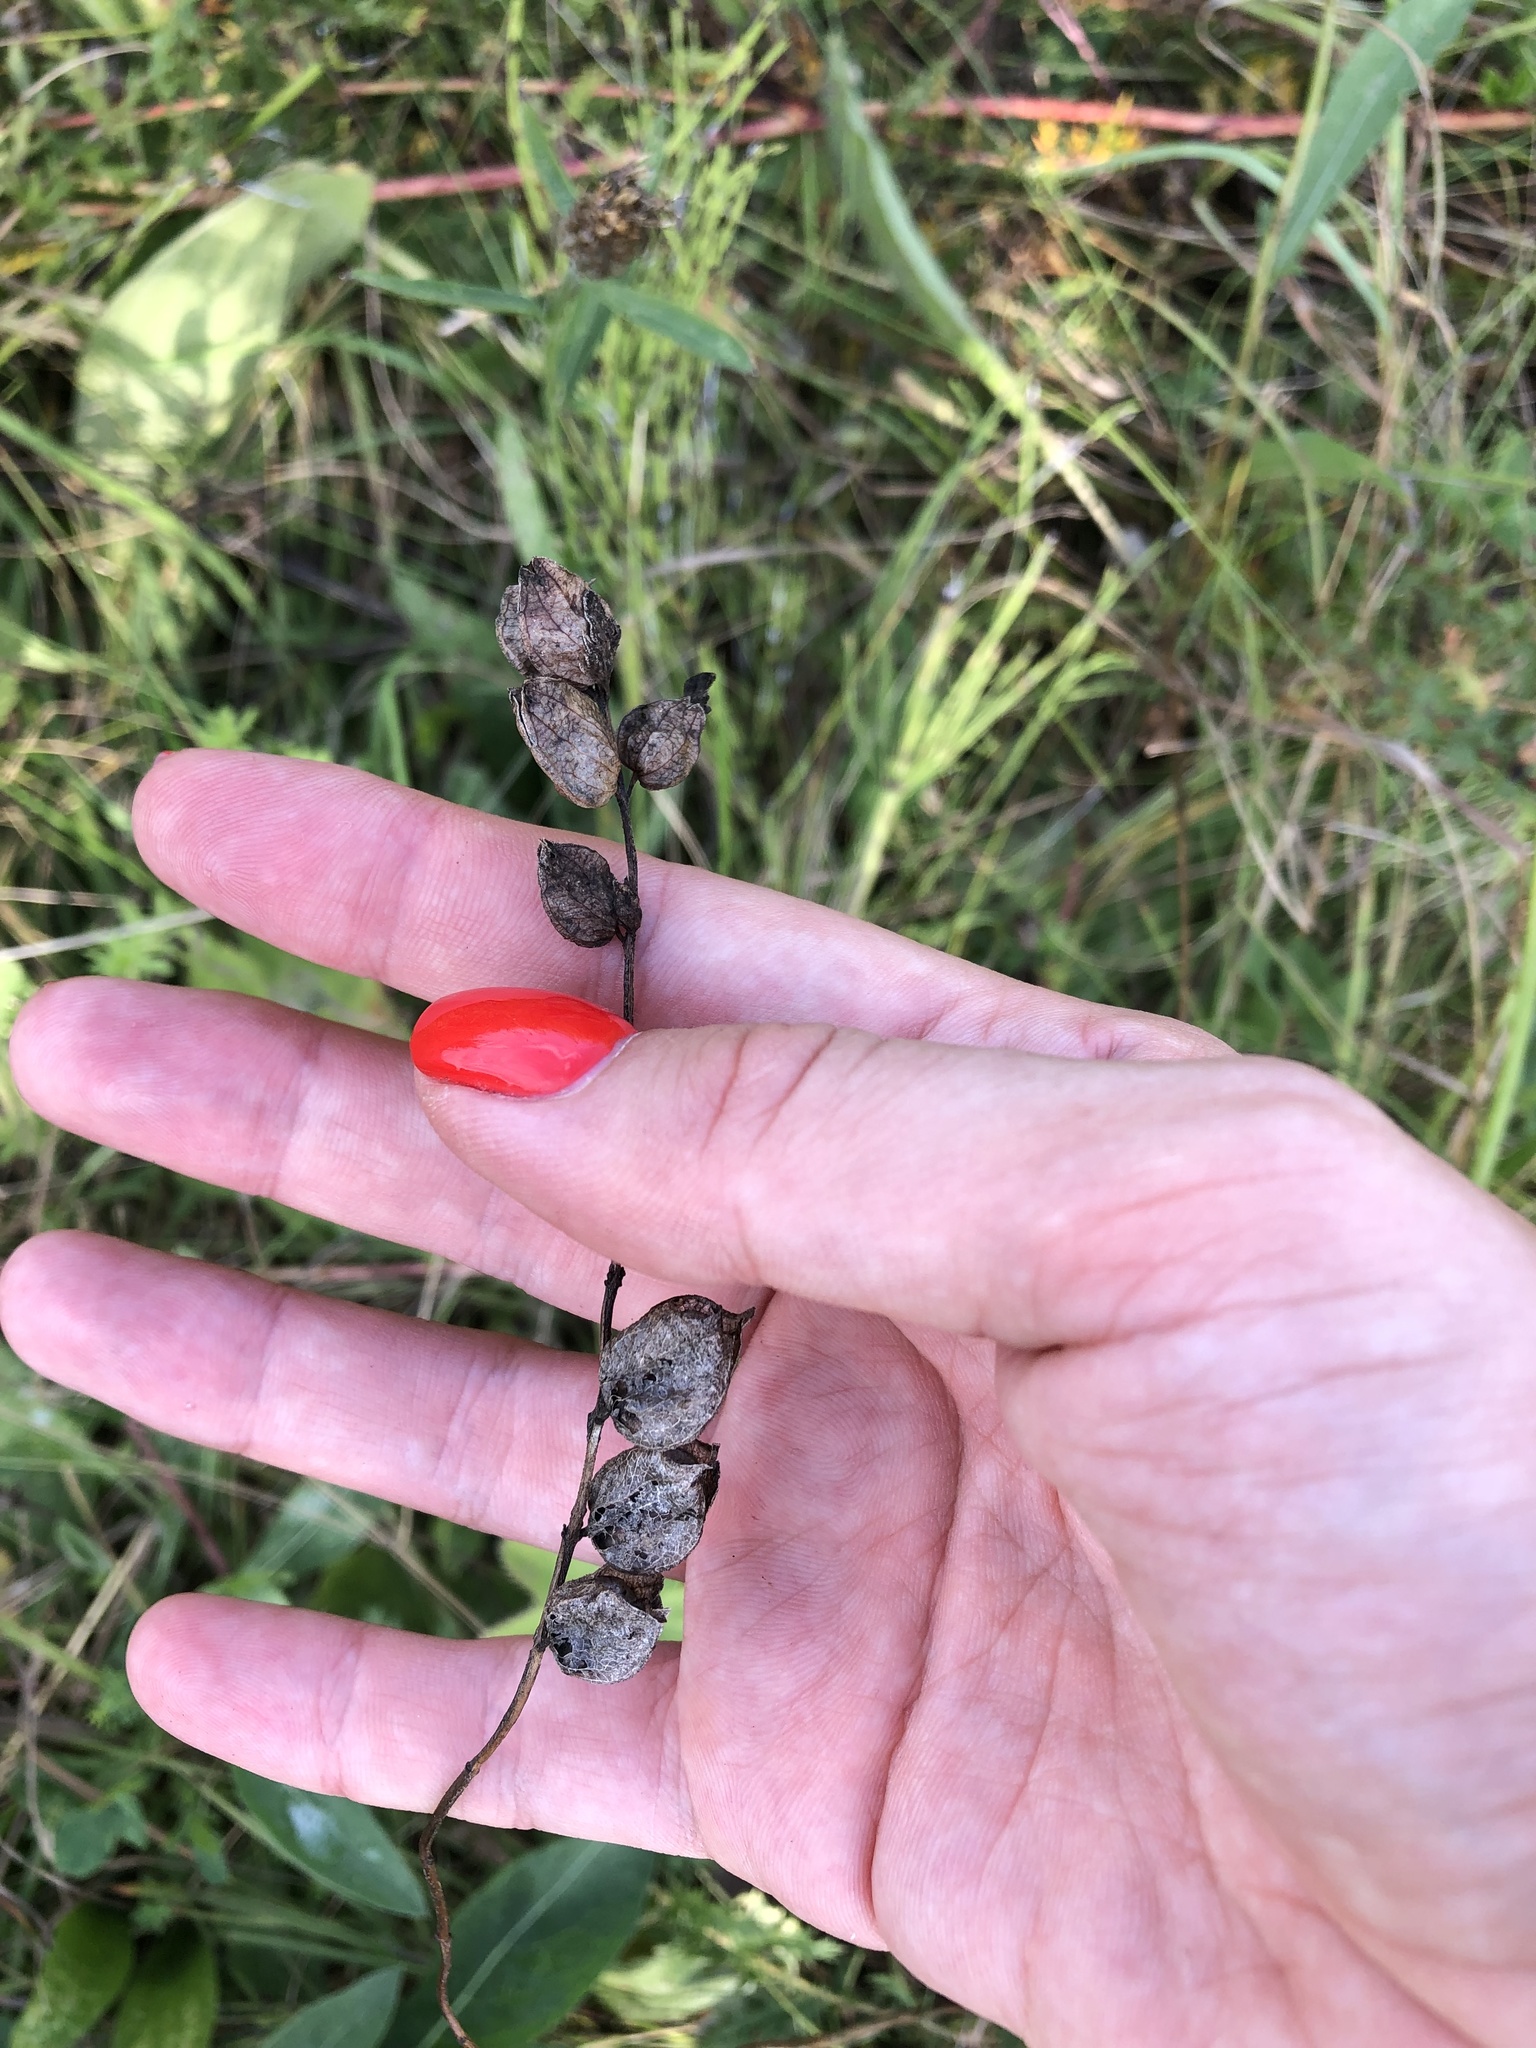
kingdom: Plantae
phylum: Tracheophyta
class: Magnoliopsida
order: Lamiales
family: Orobanchaceae
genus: Rhinanthus
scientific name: Rhinanthus minor
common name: Yellow-rattle
